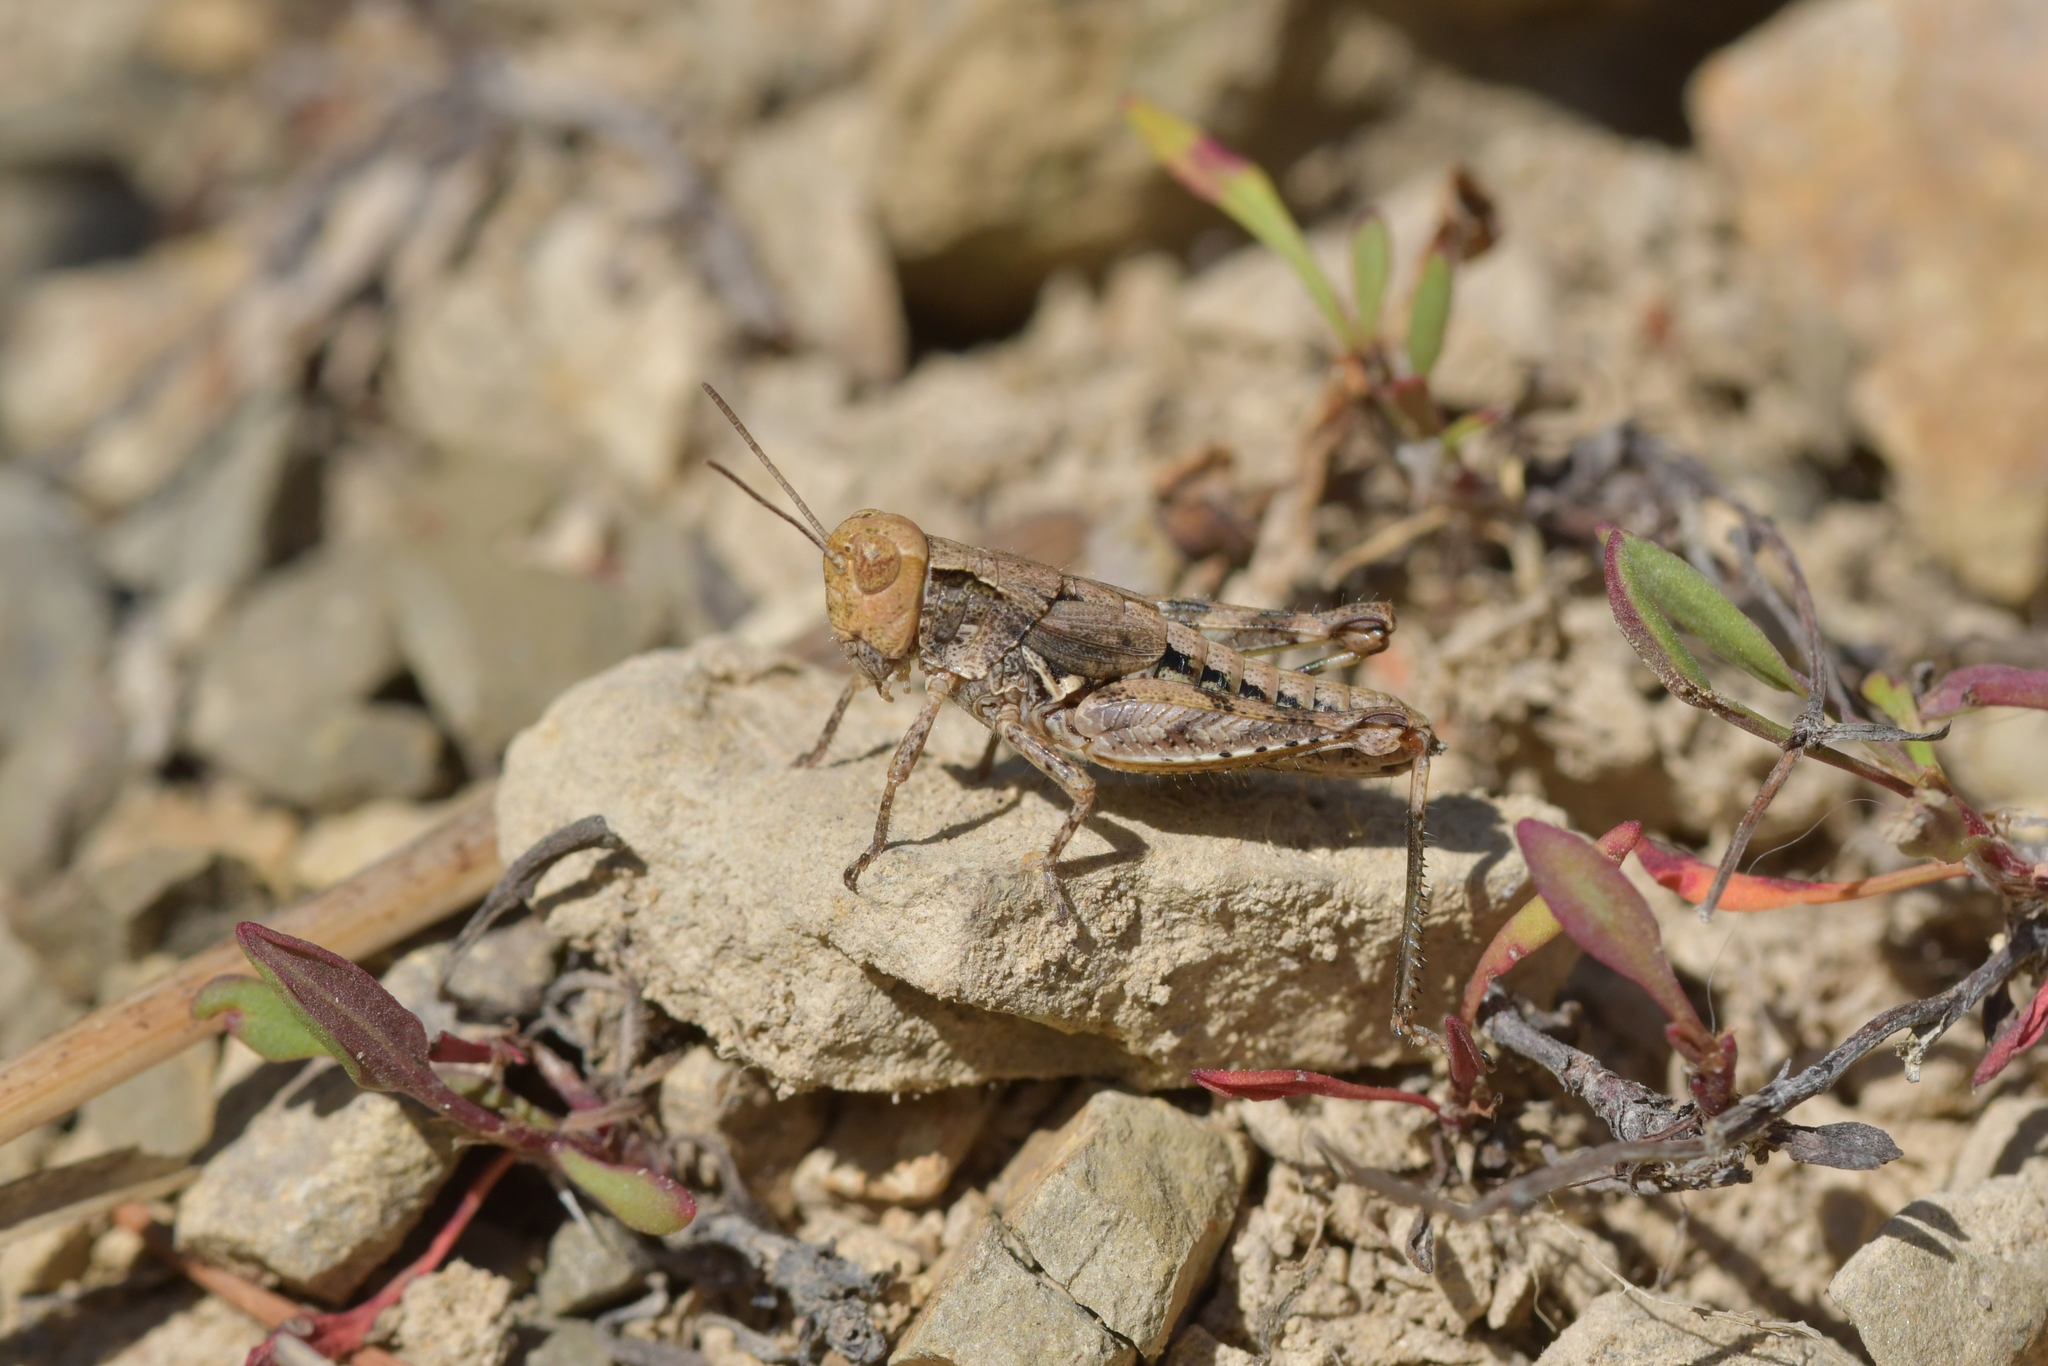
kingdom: Animalia
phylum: Arthropoda
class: Insecta
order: Orthoptera
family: Acrididae
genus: Phaulacridium
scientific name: Phaulacridium marginale
